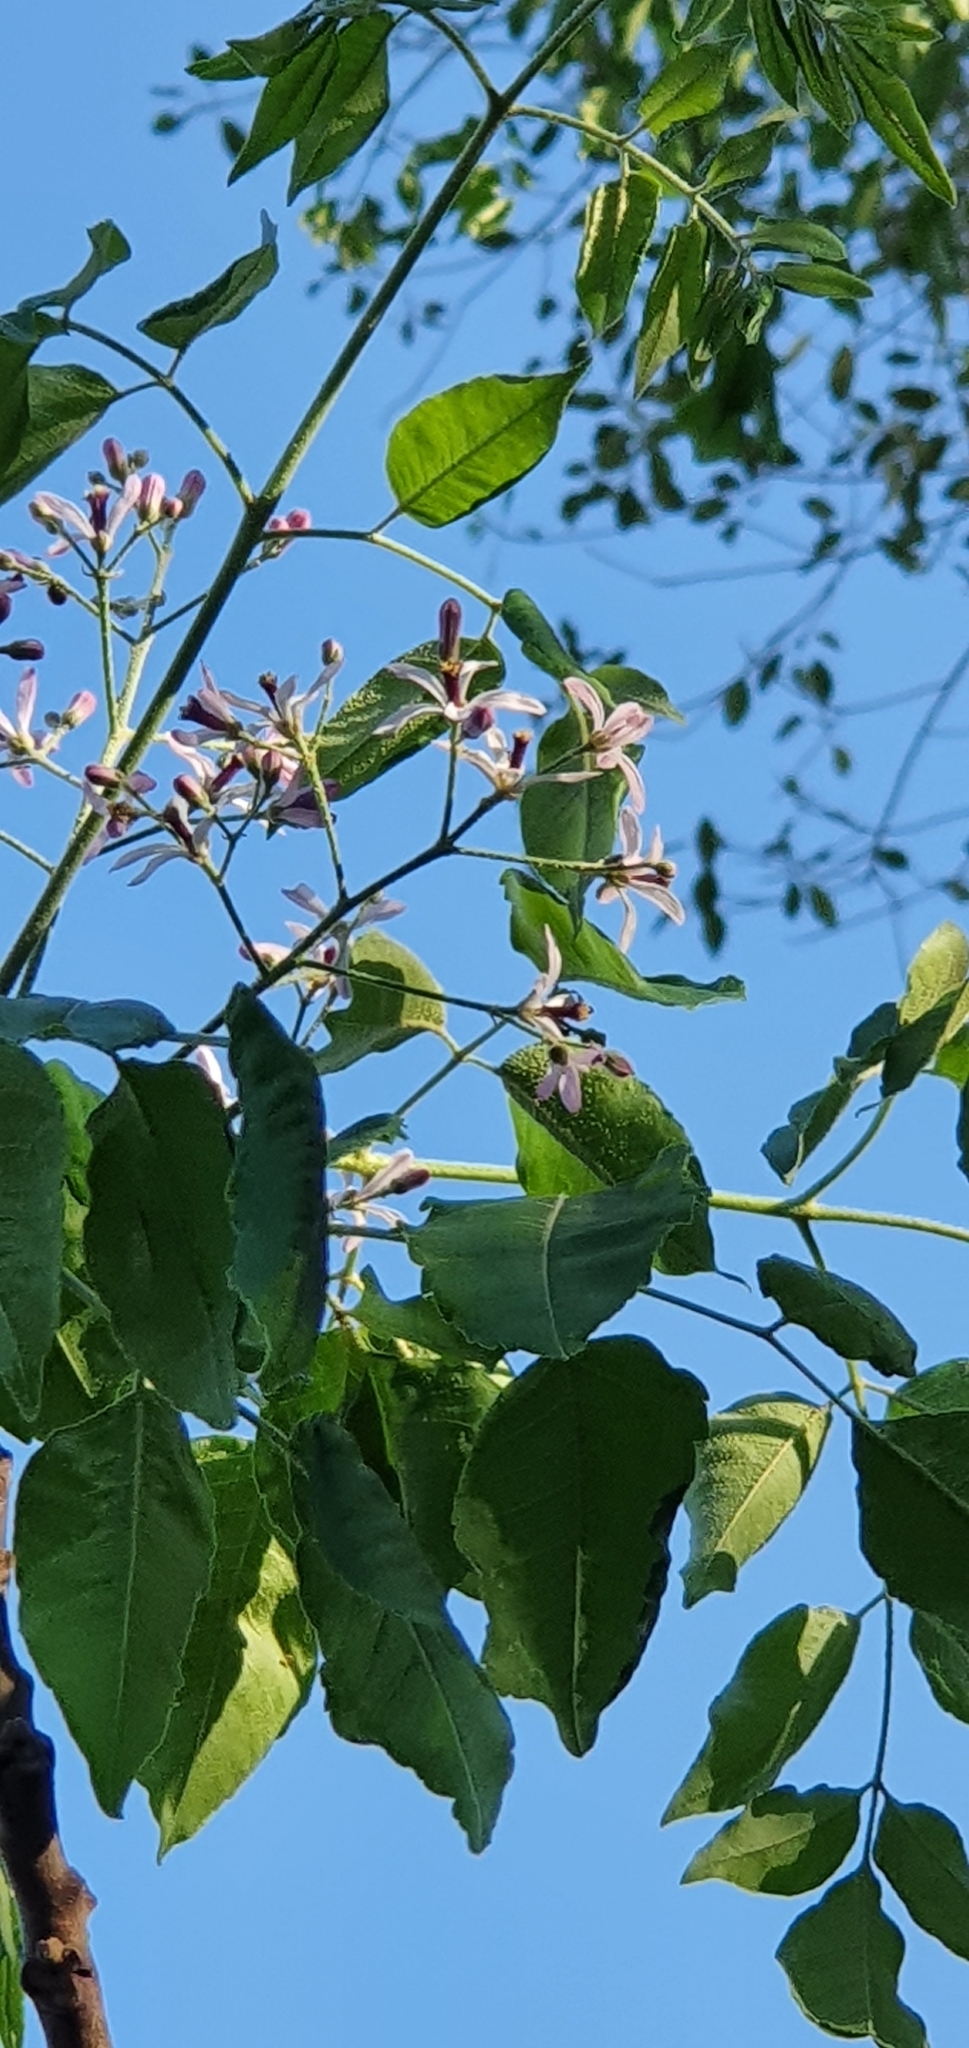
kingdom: Plantae
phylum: Tracheophyta
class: Magnoliopsida
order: Sapindales
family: Meliaceae
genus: Melia
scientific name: Melia azedarach
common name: Chinaberrytree
